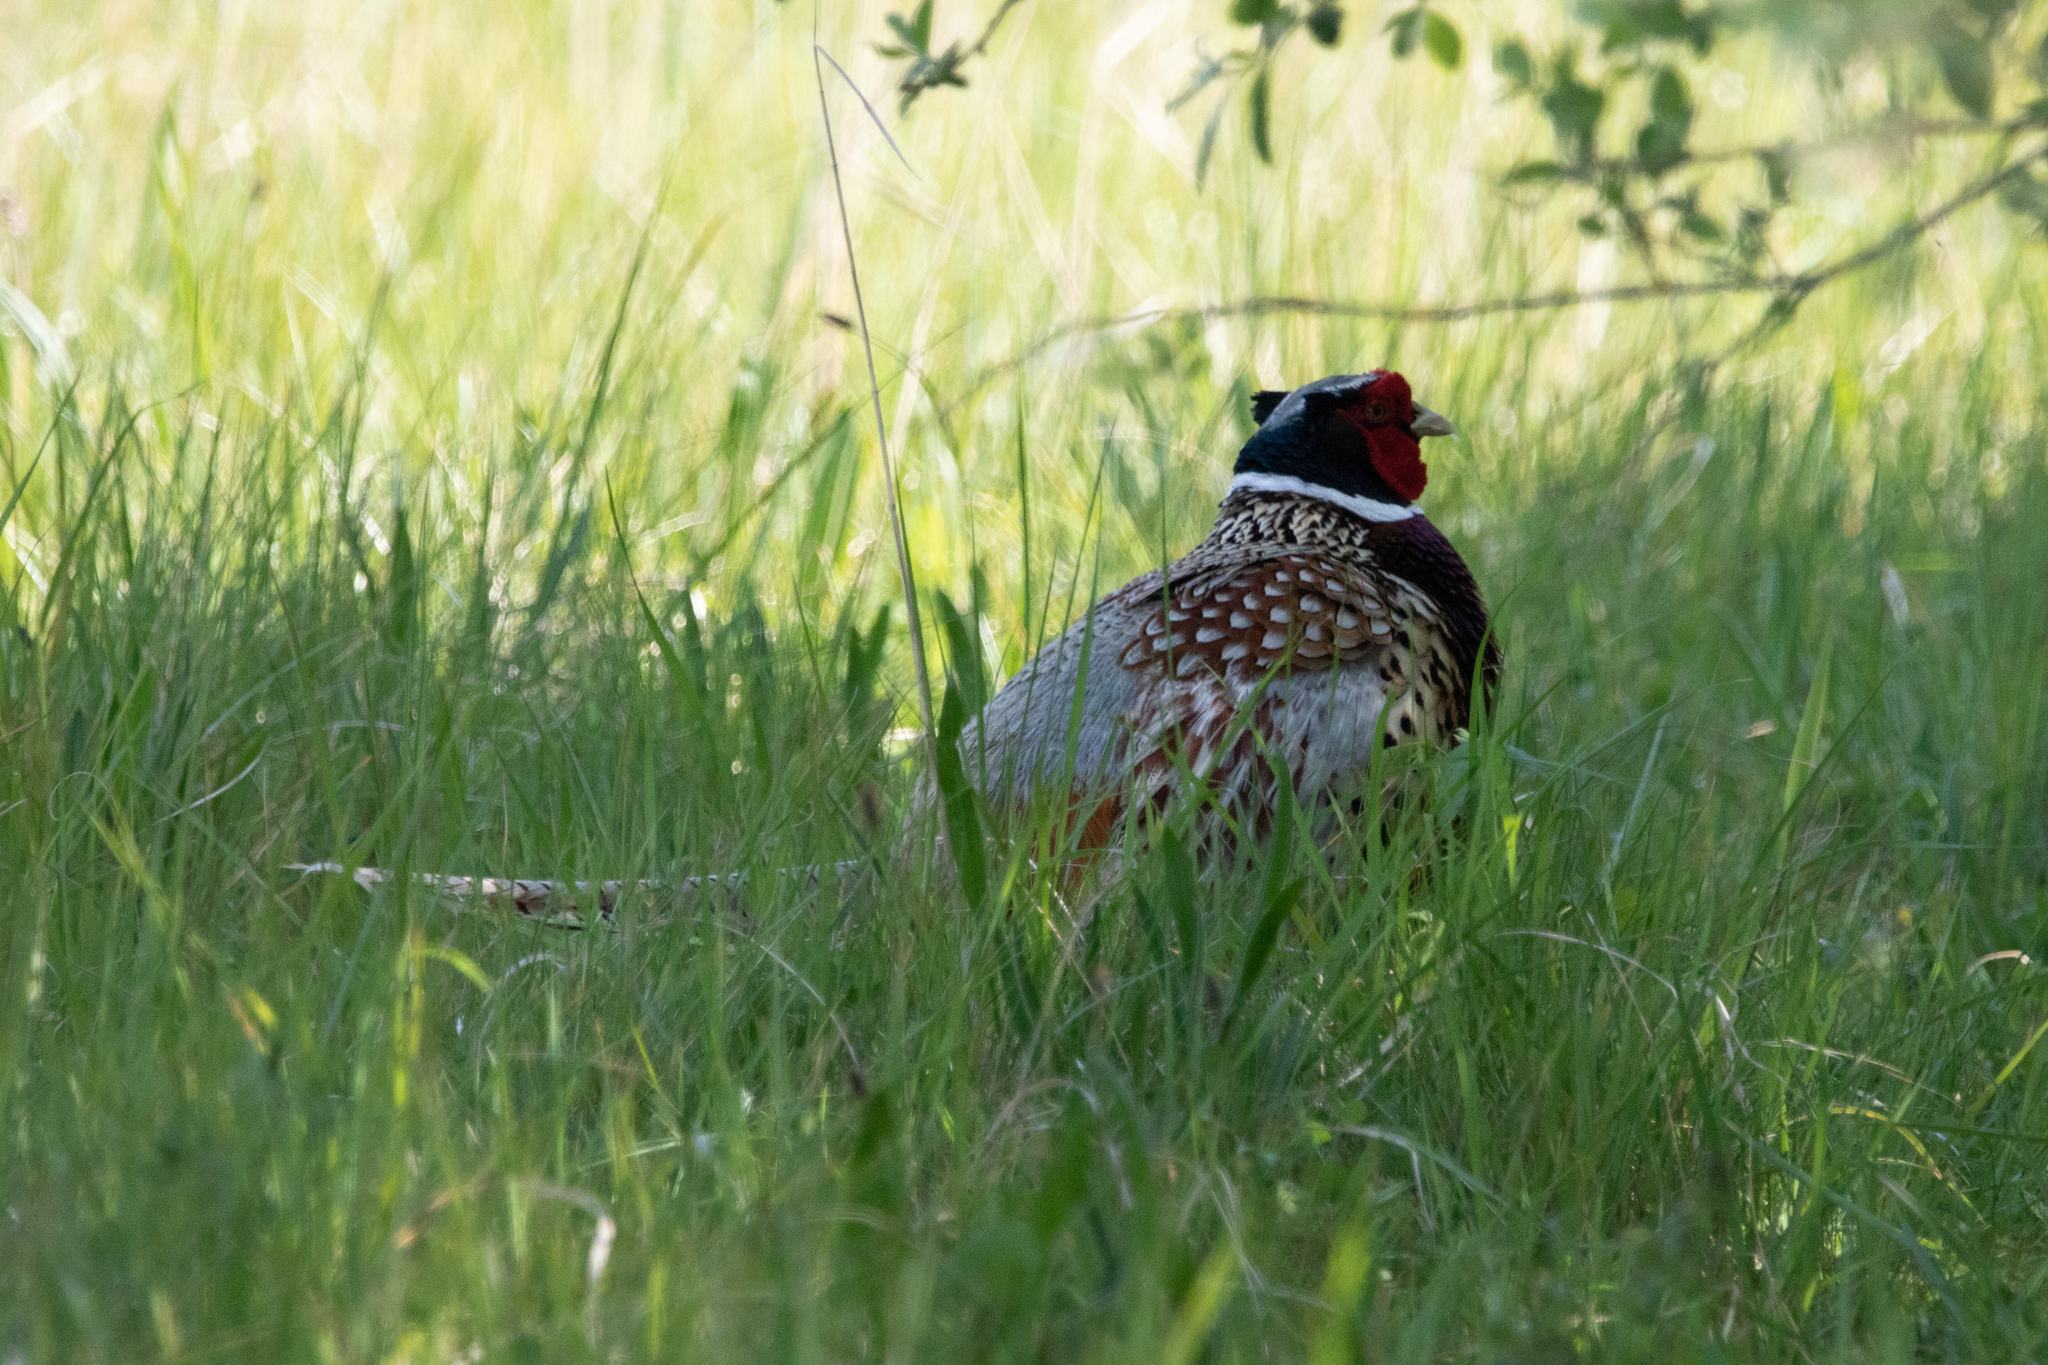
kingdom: Animalia
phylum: Chordata
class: Aves
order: Galliformes
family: Phasianidae
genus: Phasianus
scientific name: Phasianus colchicus
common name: Common pheasant
